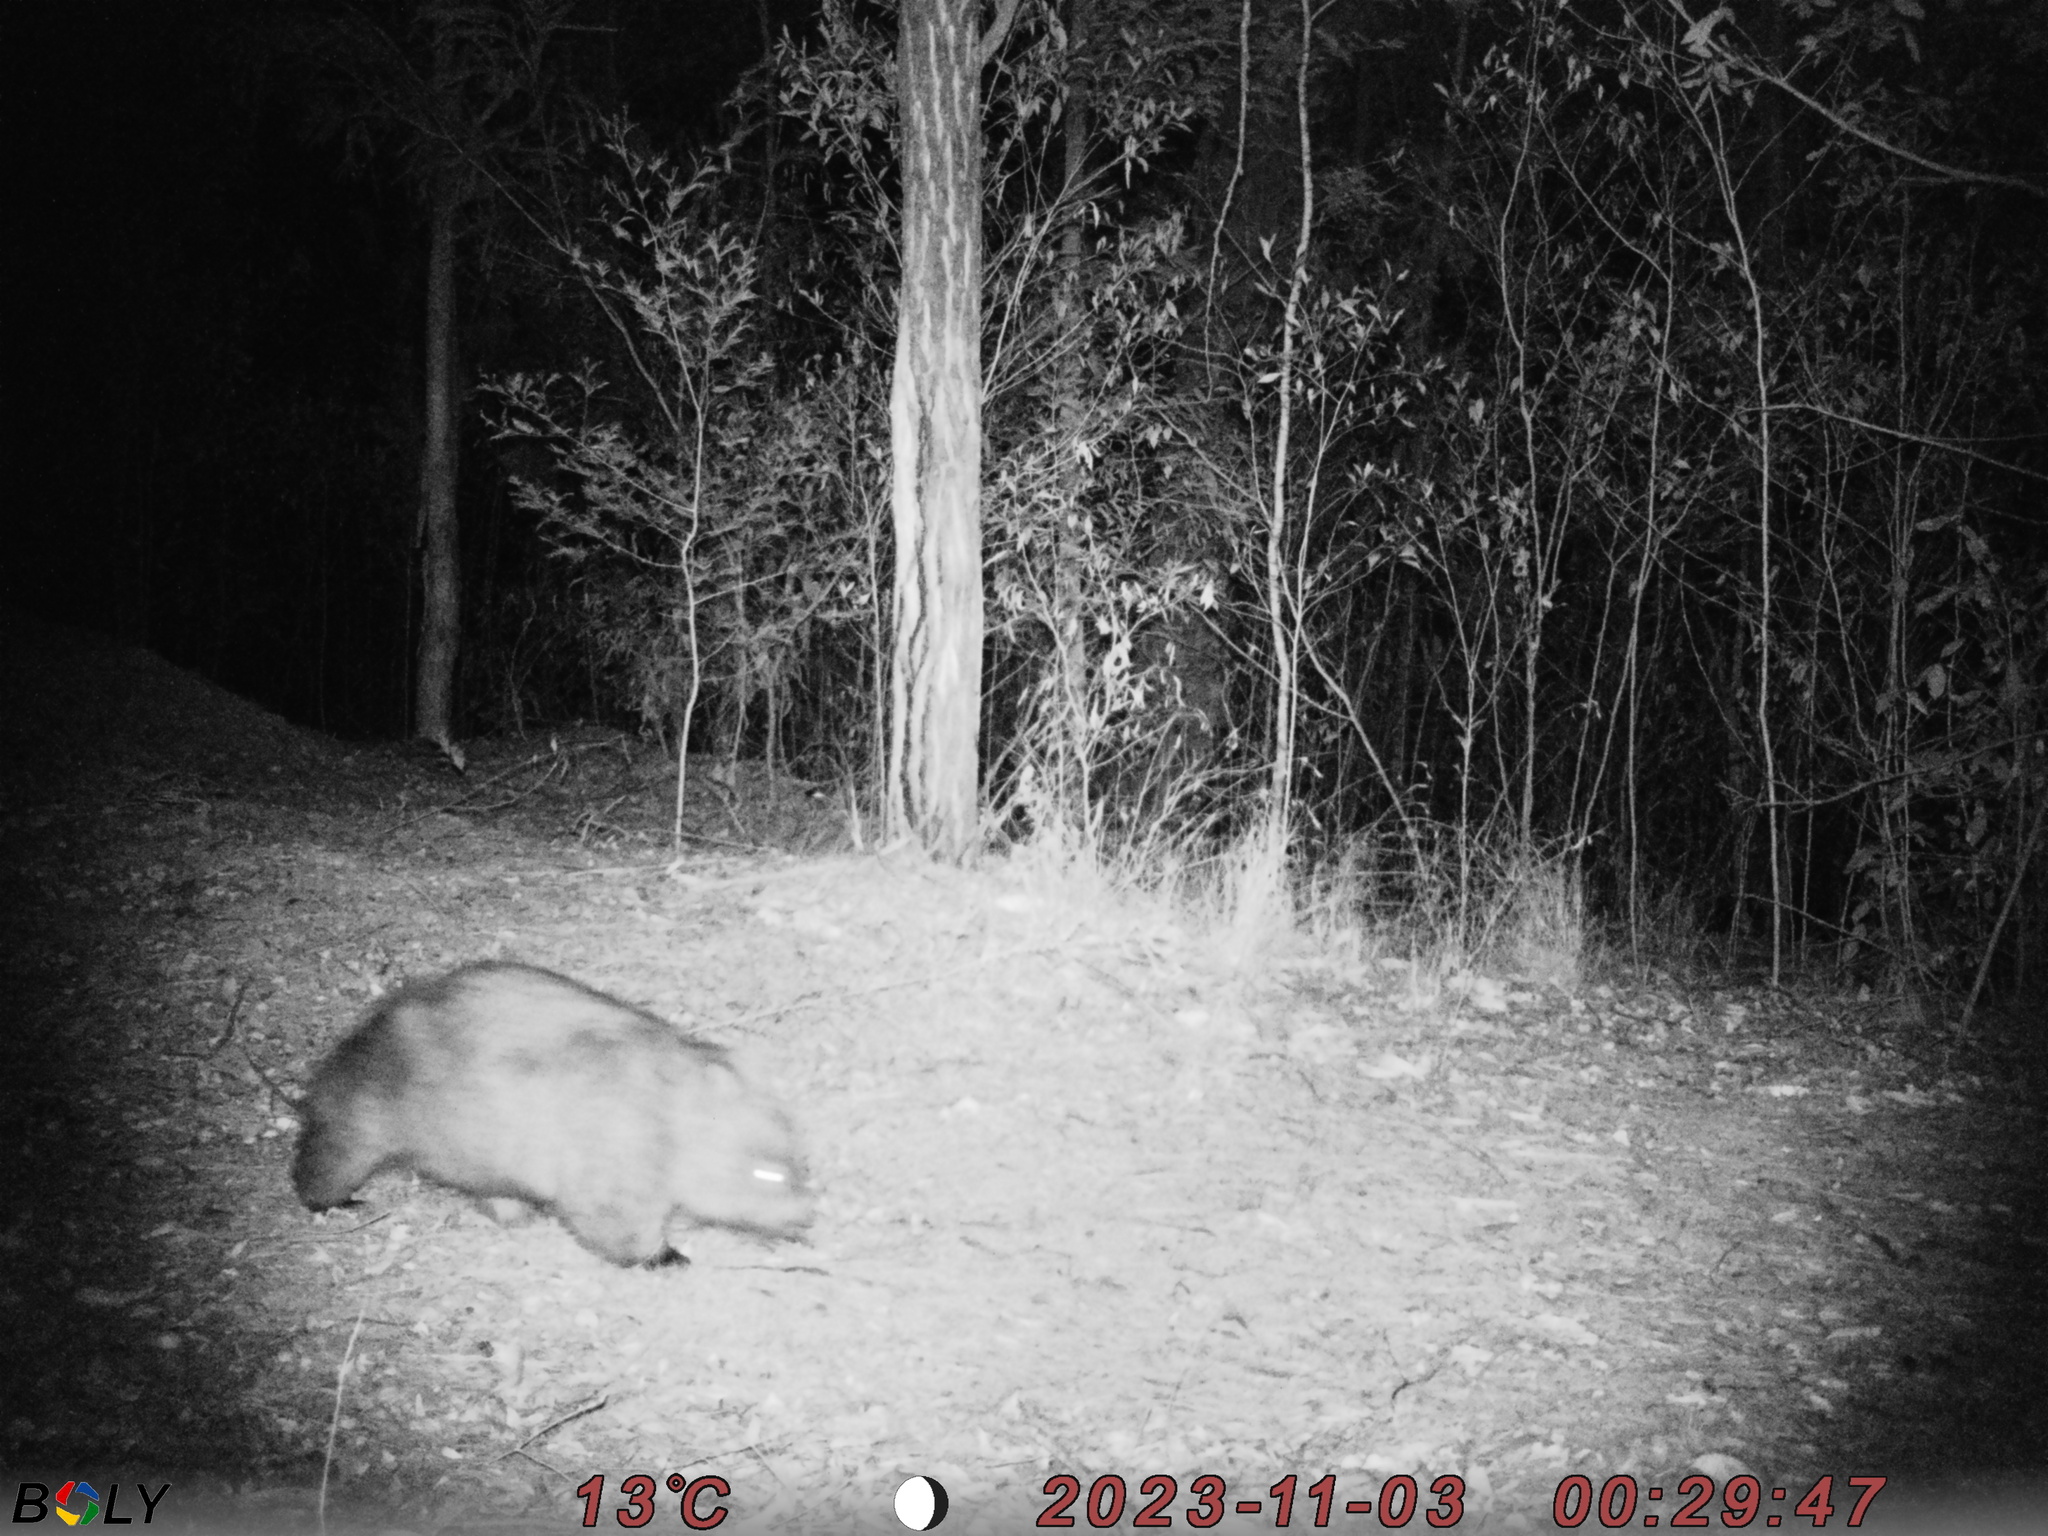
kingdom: Animalia
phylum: Chordata
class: Mammalia
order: Diprotodontia
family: Vombatidae
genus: Vombatus
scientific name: Vombatus ursinus
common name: Common wombat
